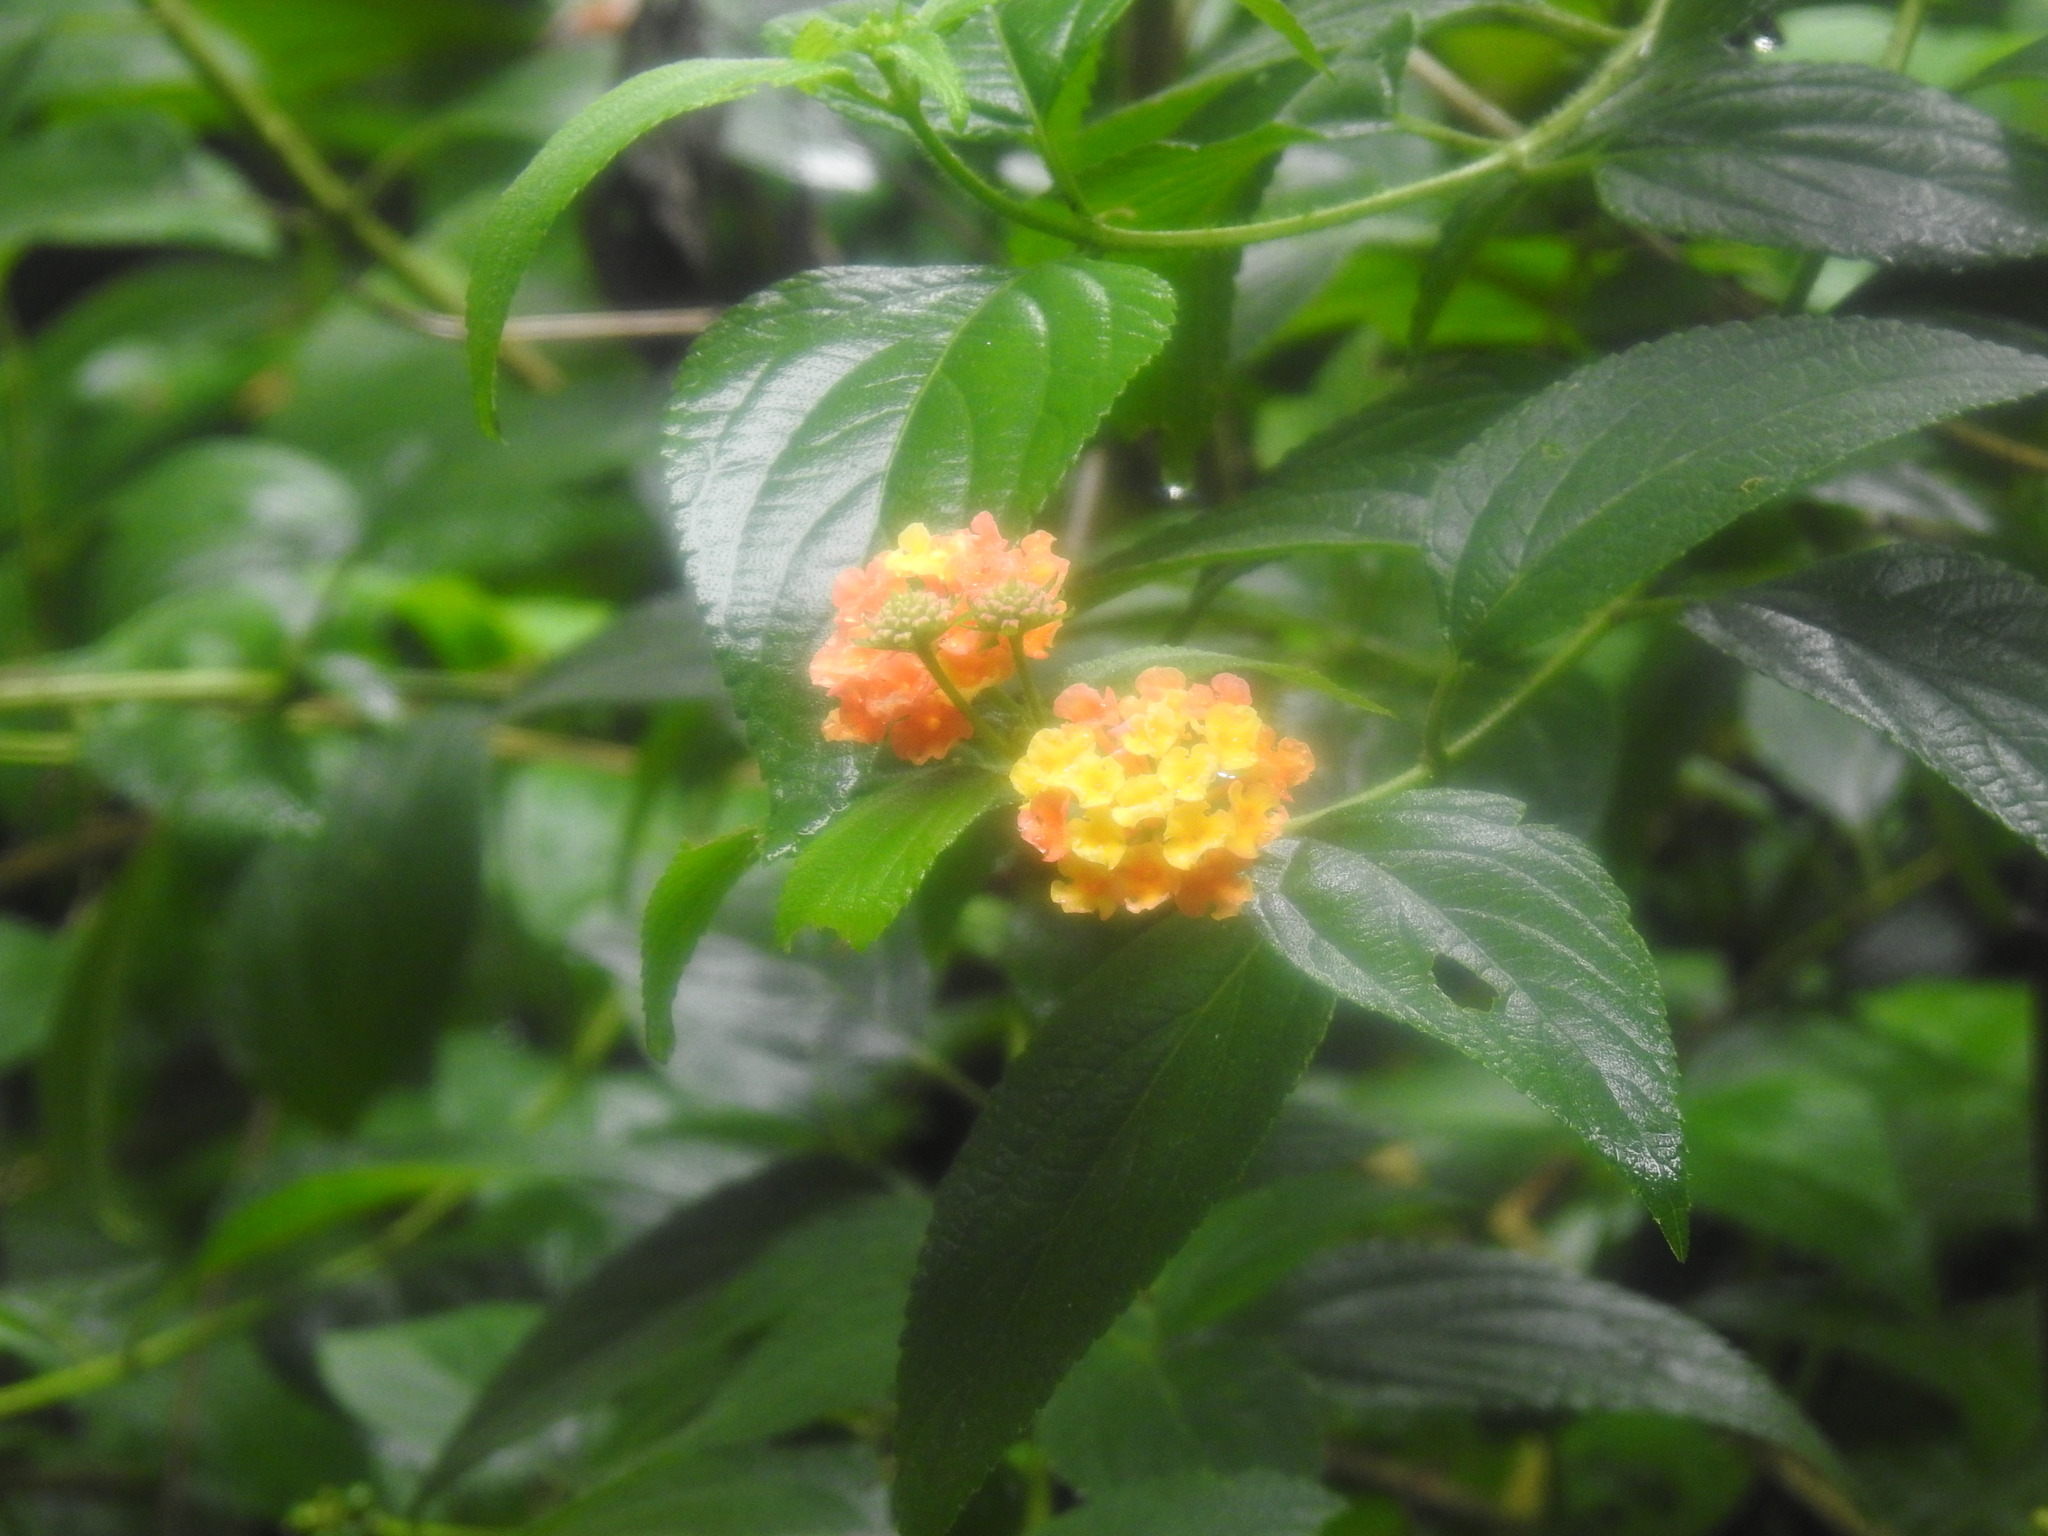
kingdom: Plantae
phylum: Tracheophyta
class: Magnoliopsida
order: Lamiales
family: Verbenaceae
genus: Lantana
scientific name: Lantana camara
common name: Lantana
